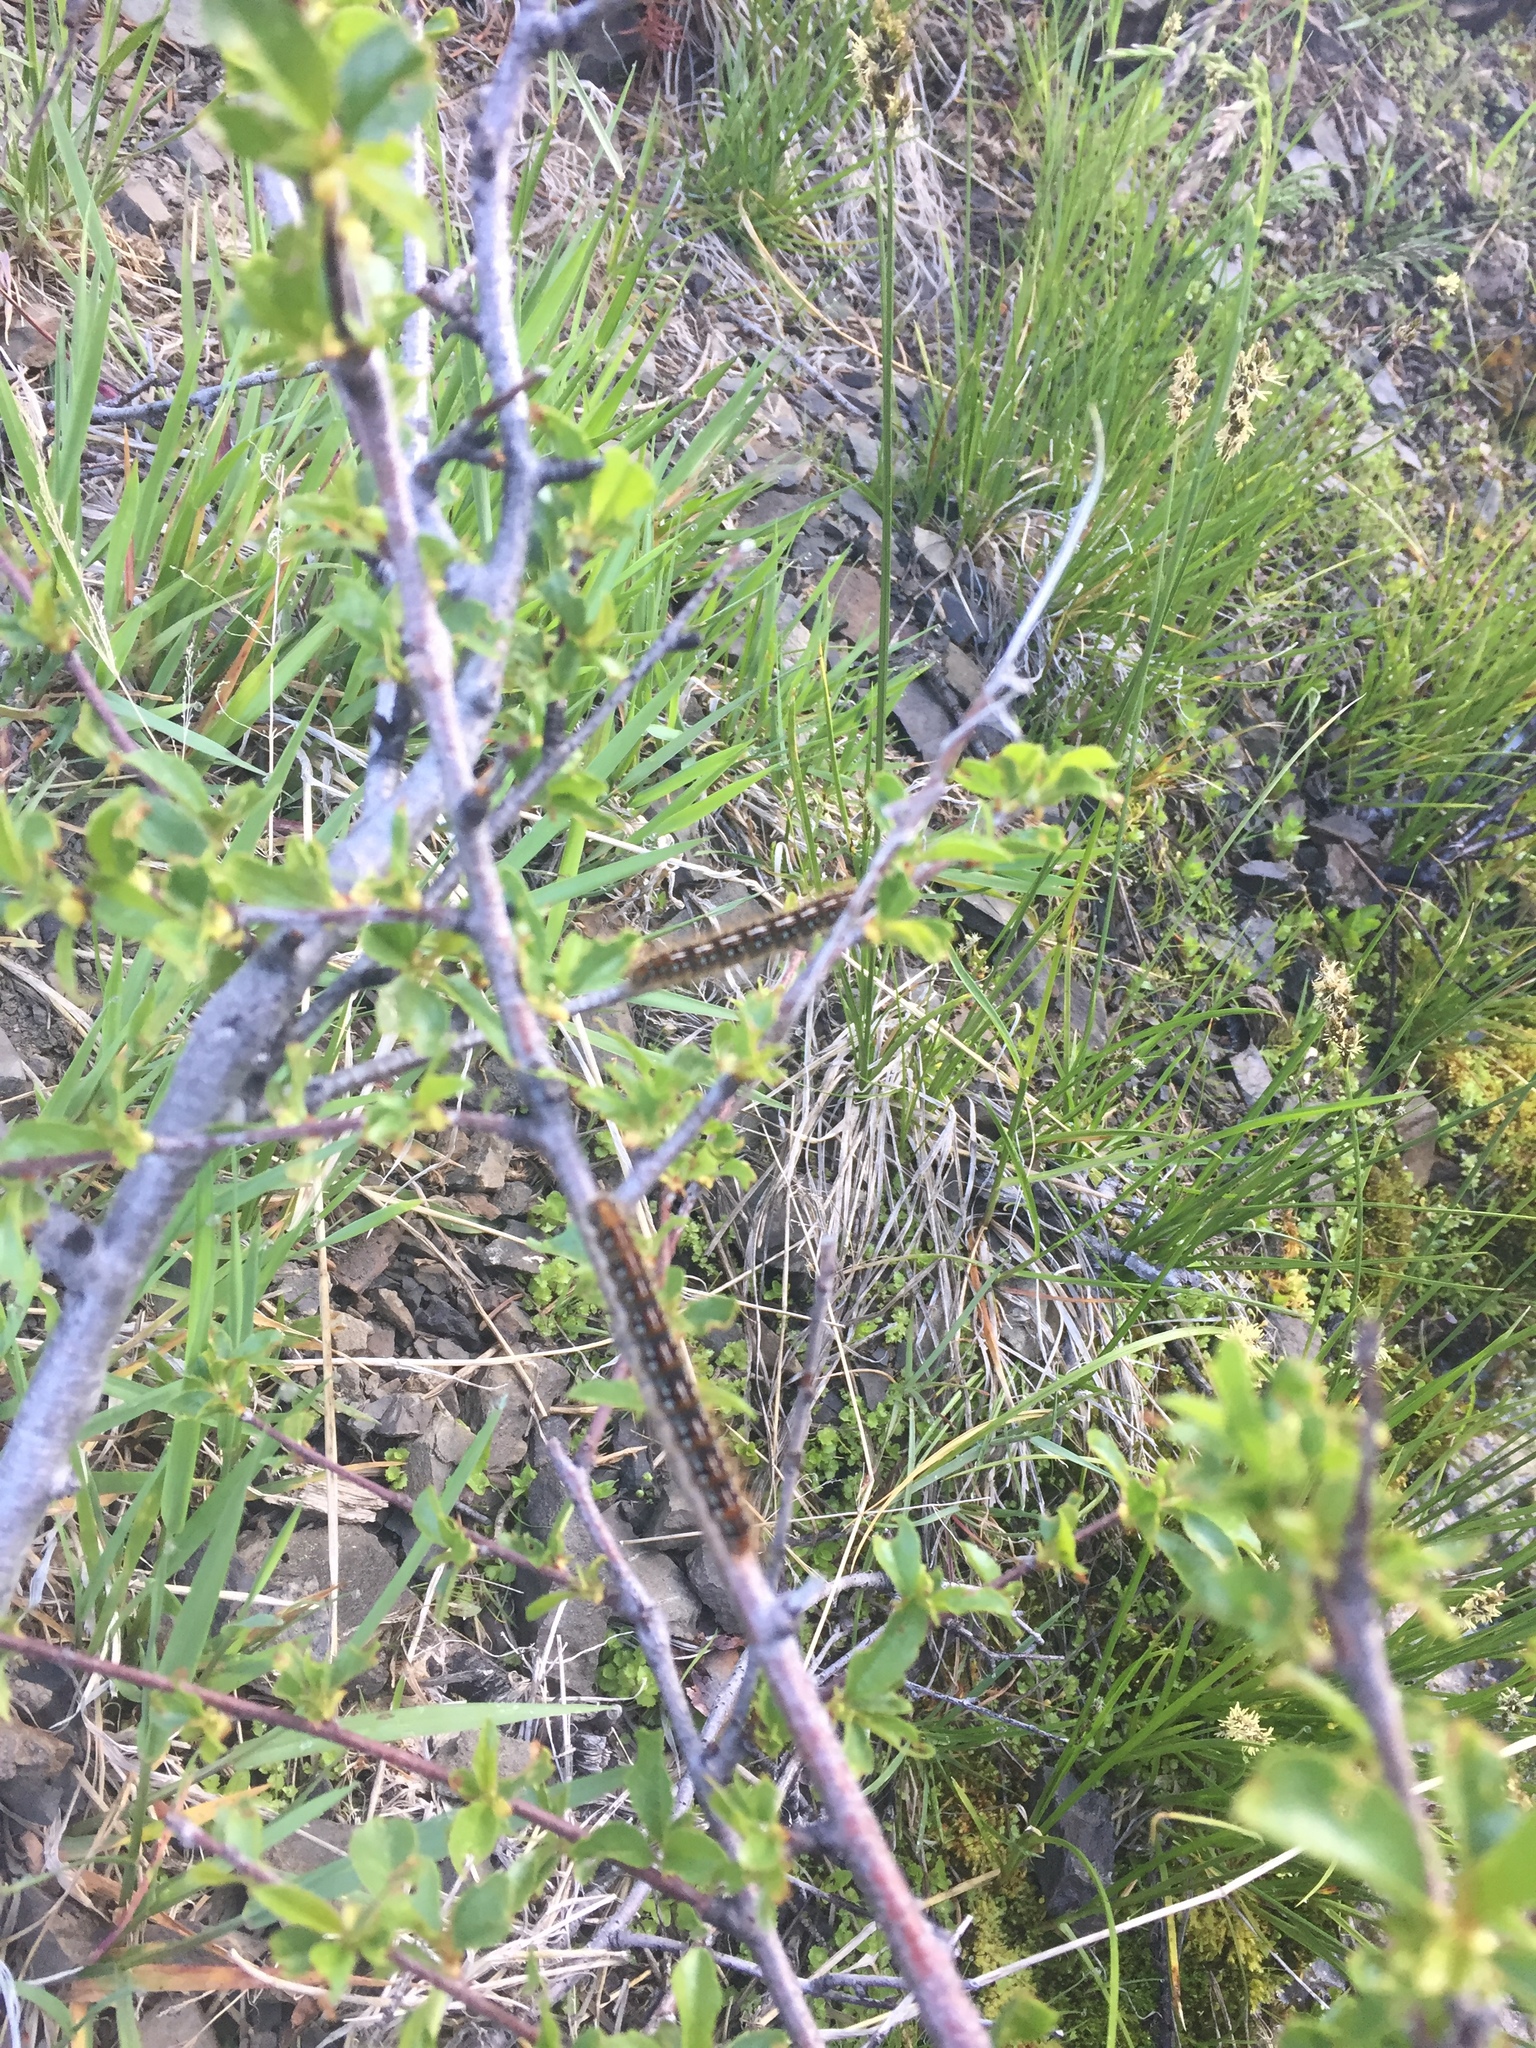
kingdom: Animalia
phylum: Arthropoda
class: Insecta
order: Lepidoptera
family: Lasiocampidae
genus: Malacosoma
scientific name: Malacosoma californica
